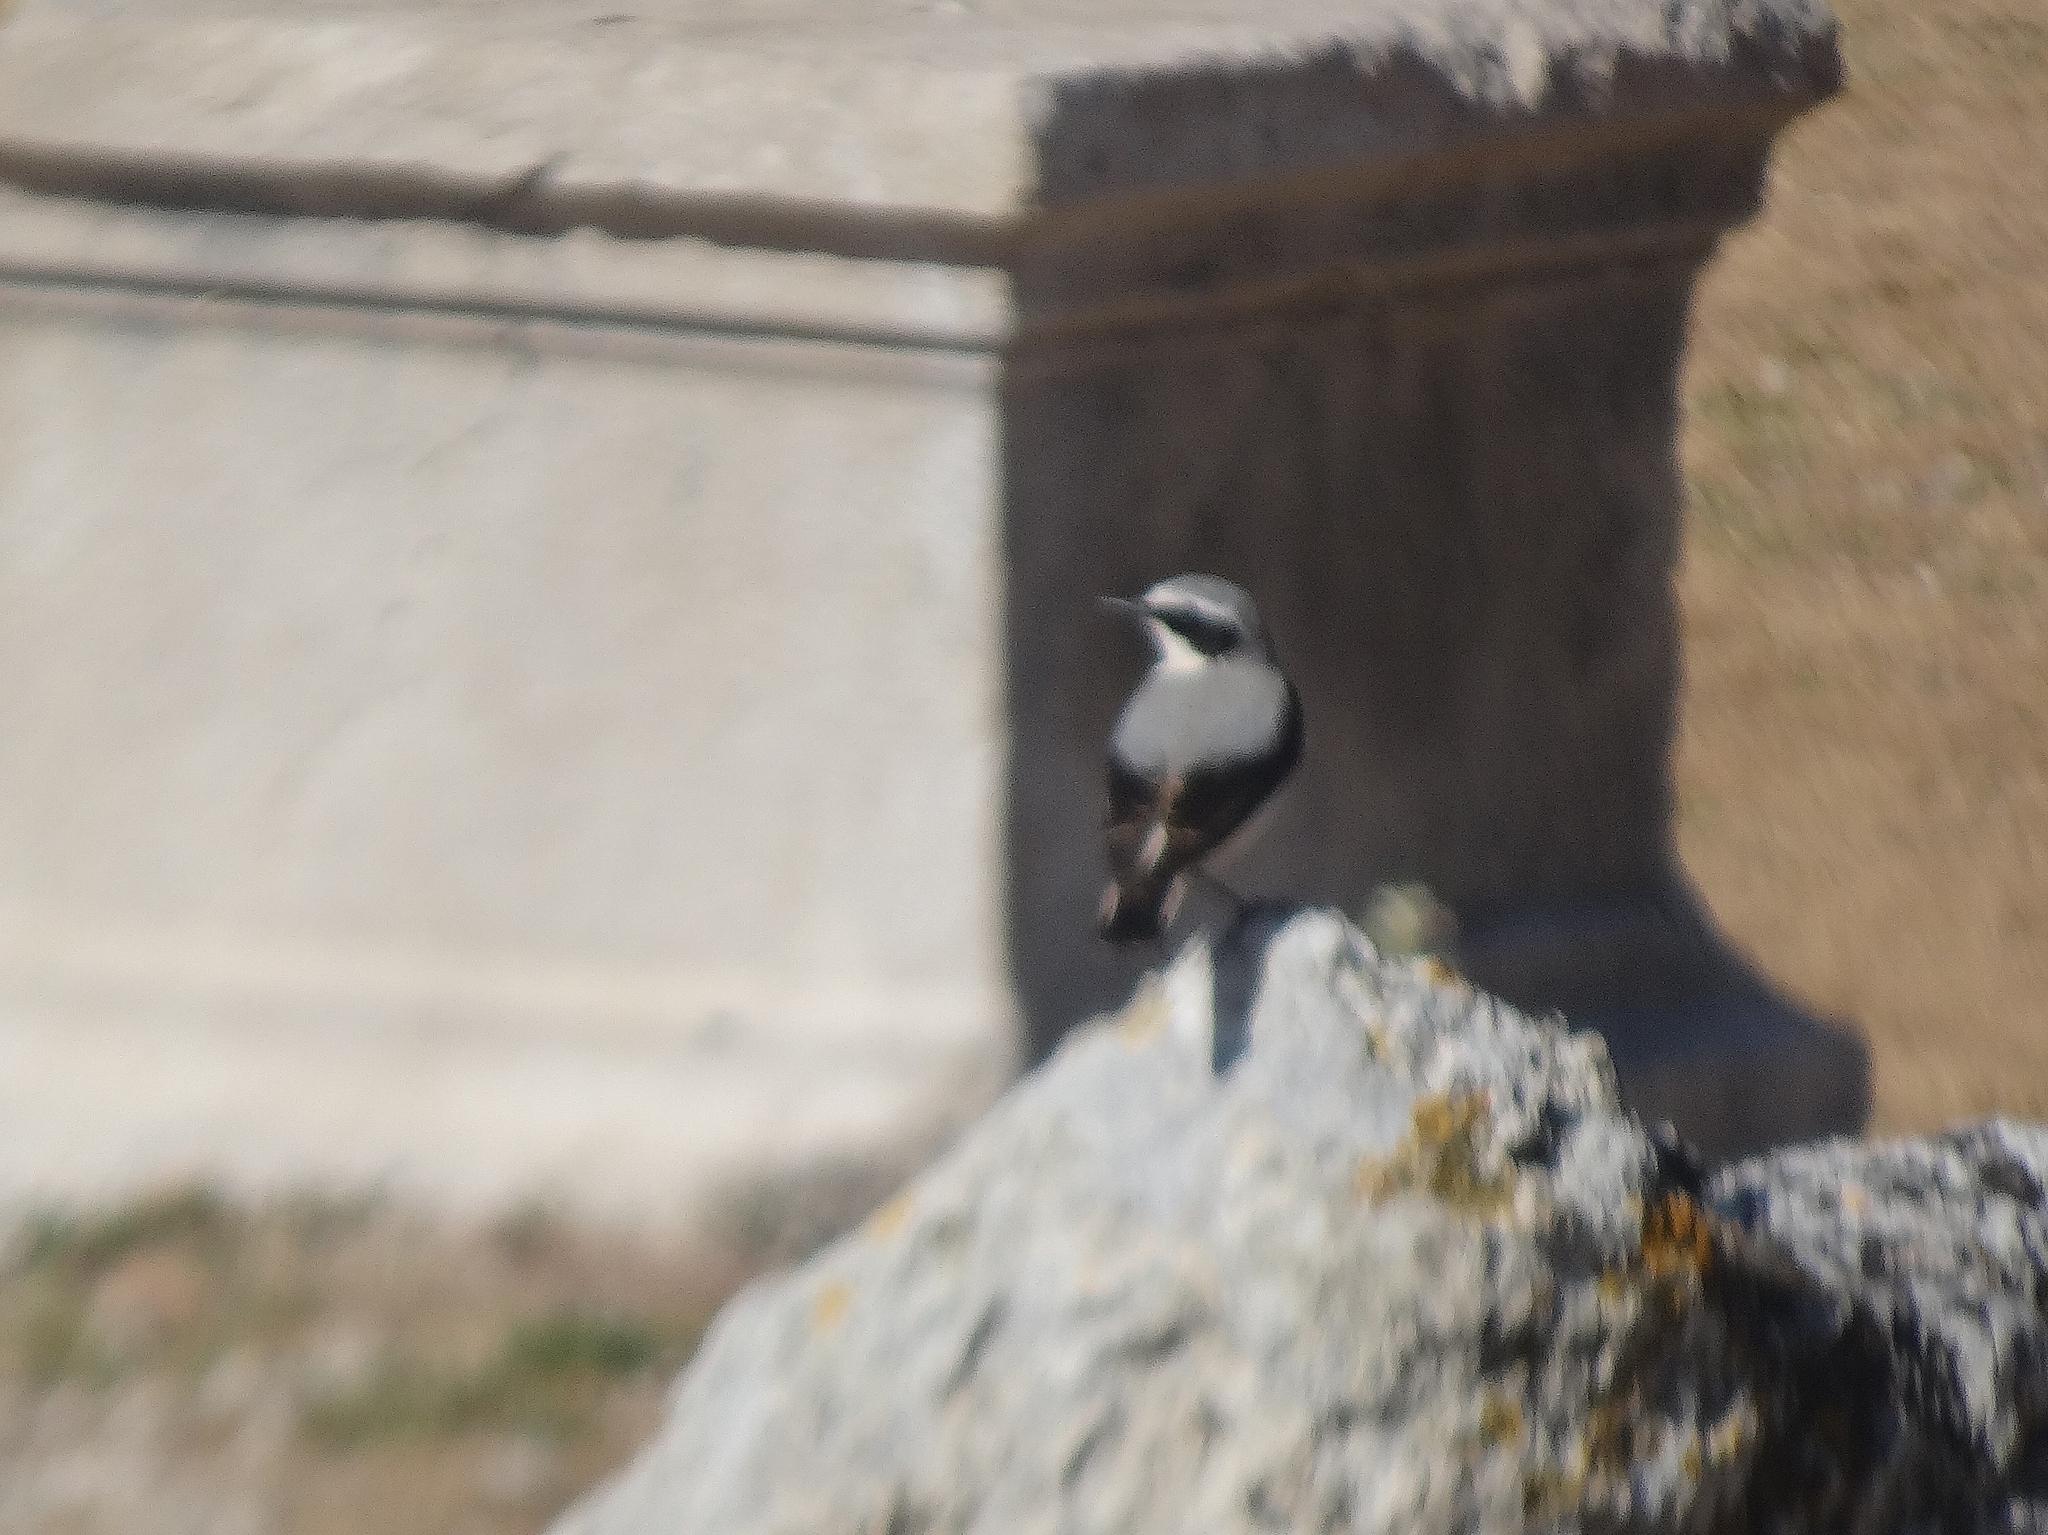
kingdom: Animalia
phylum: Chordata
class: Aves
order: Passeriformes
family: Muscicapidae
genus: Oenanthe
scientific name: Oenanthe oenanthe
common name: Northern wheatear
